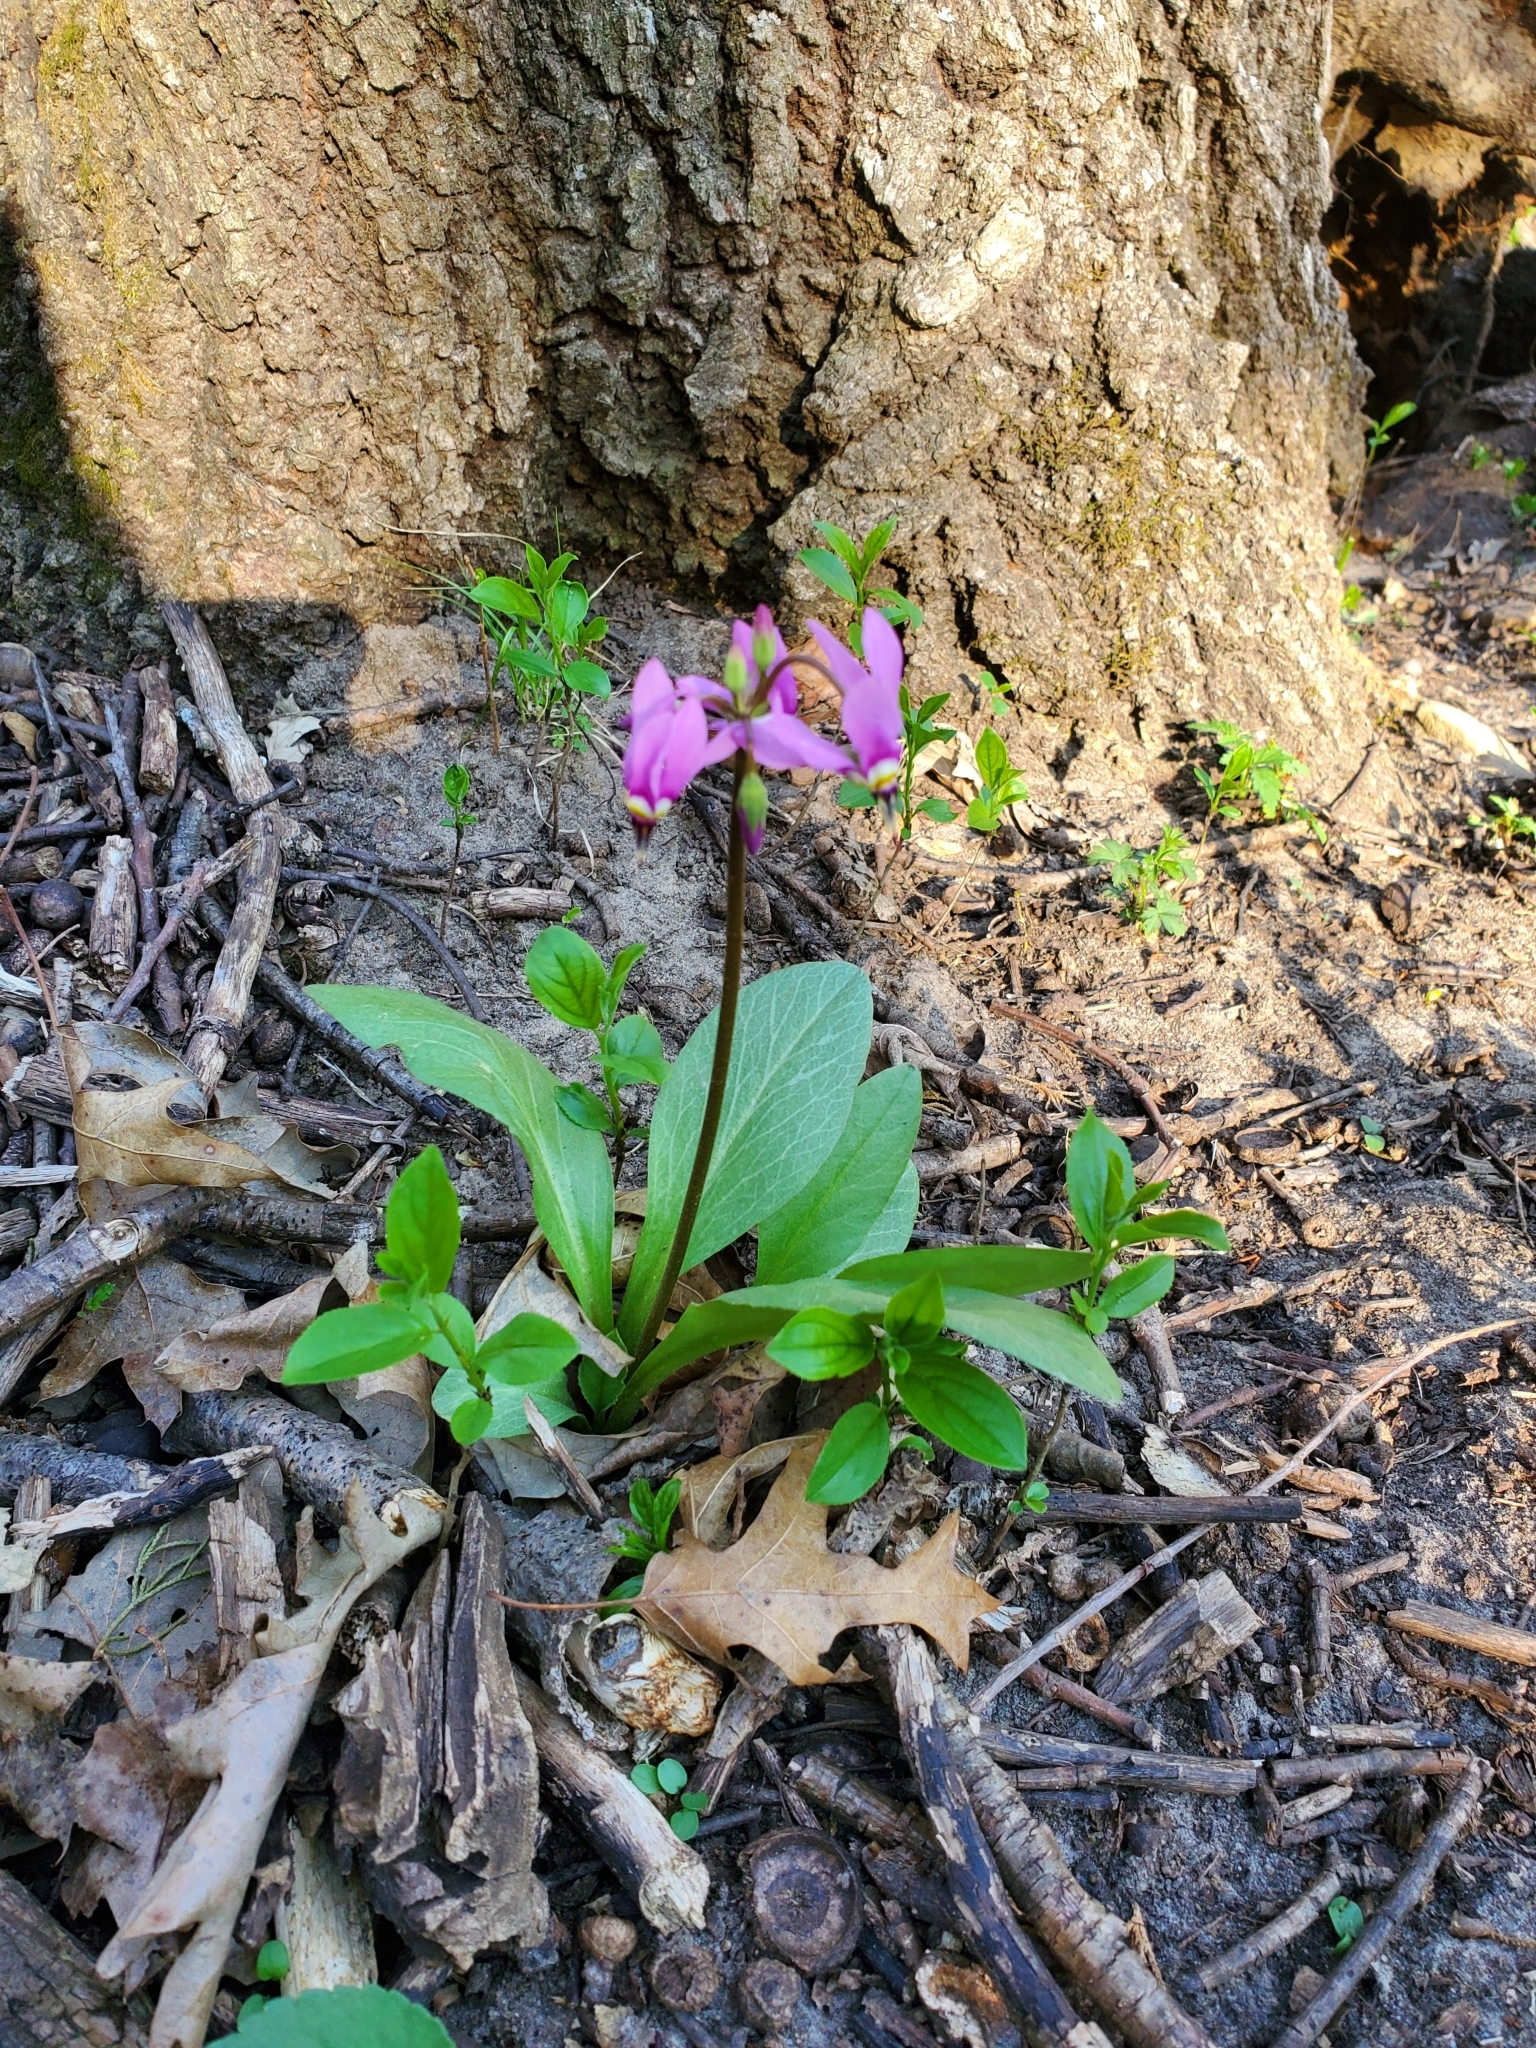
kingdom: Plantae
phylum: Tracheophyta
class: Magnoliopsida
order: Ericales
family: Primulaceae
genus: Dodecatheon
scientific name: Dodecatheon amethystinum
